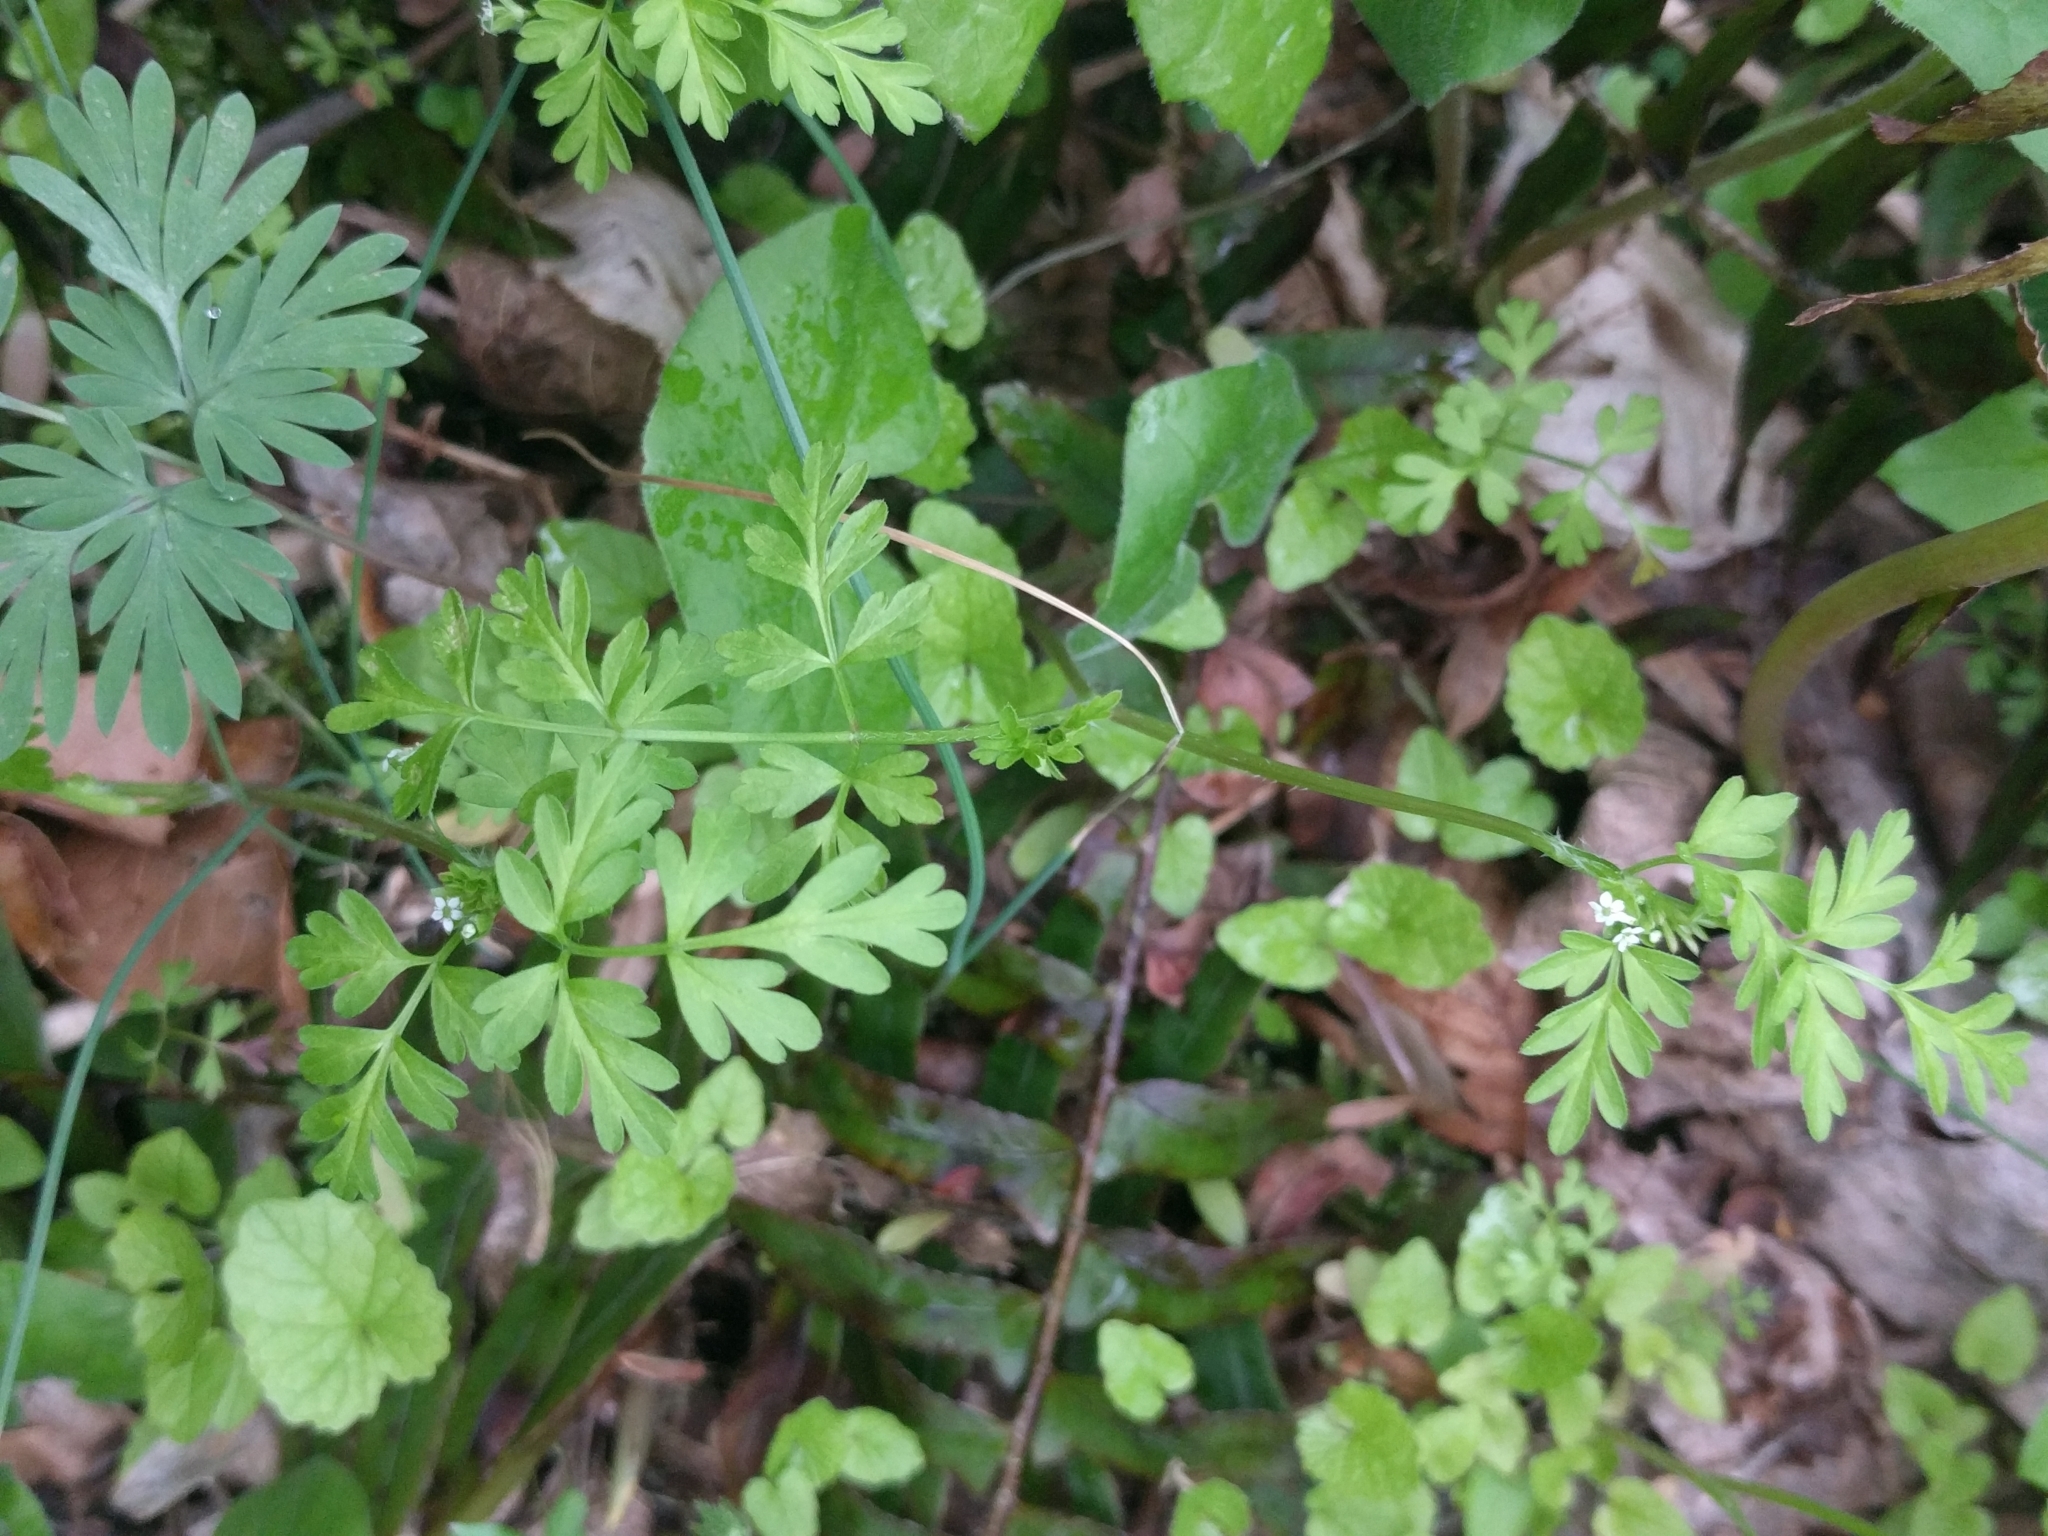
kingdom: Plantae
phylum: Tracheophyta
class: Magnoliopsida
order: Apiales
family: Apiaceae
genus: Chaerophyllum
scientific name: Chaerophyllum procumbens
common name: Spreading chervil
